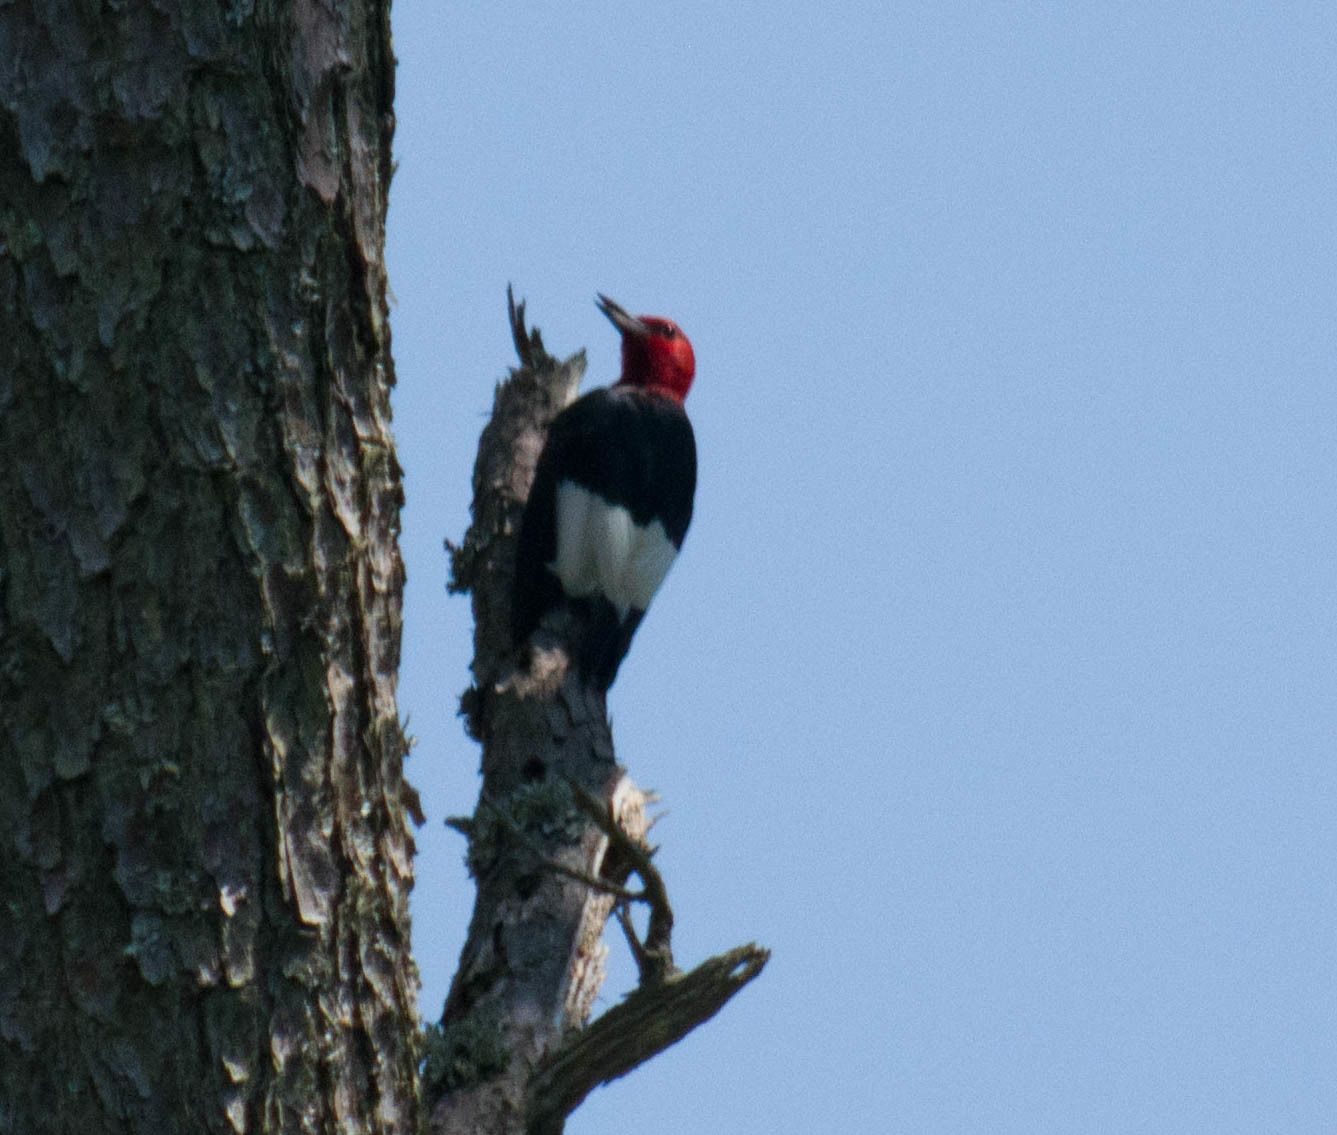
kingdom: Animalia
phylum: Chordata
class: Aves
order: Piciformes
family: Picidae
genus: Melanerpes
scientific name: Melanerpes erythrocephalus
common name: Red-headed woodpecker
